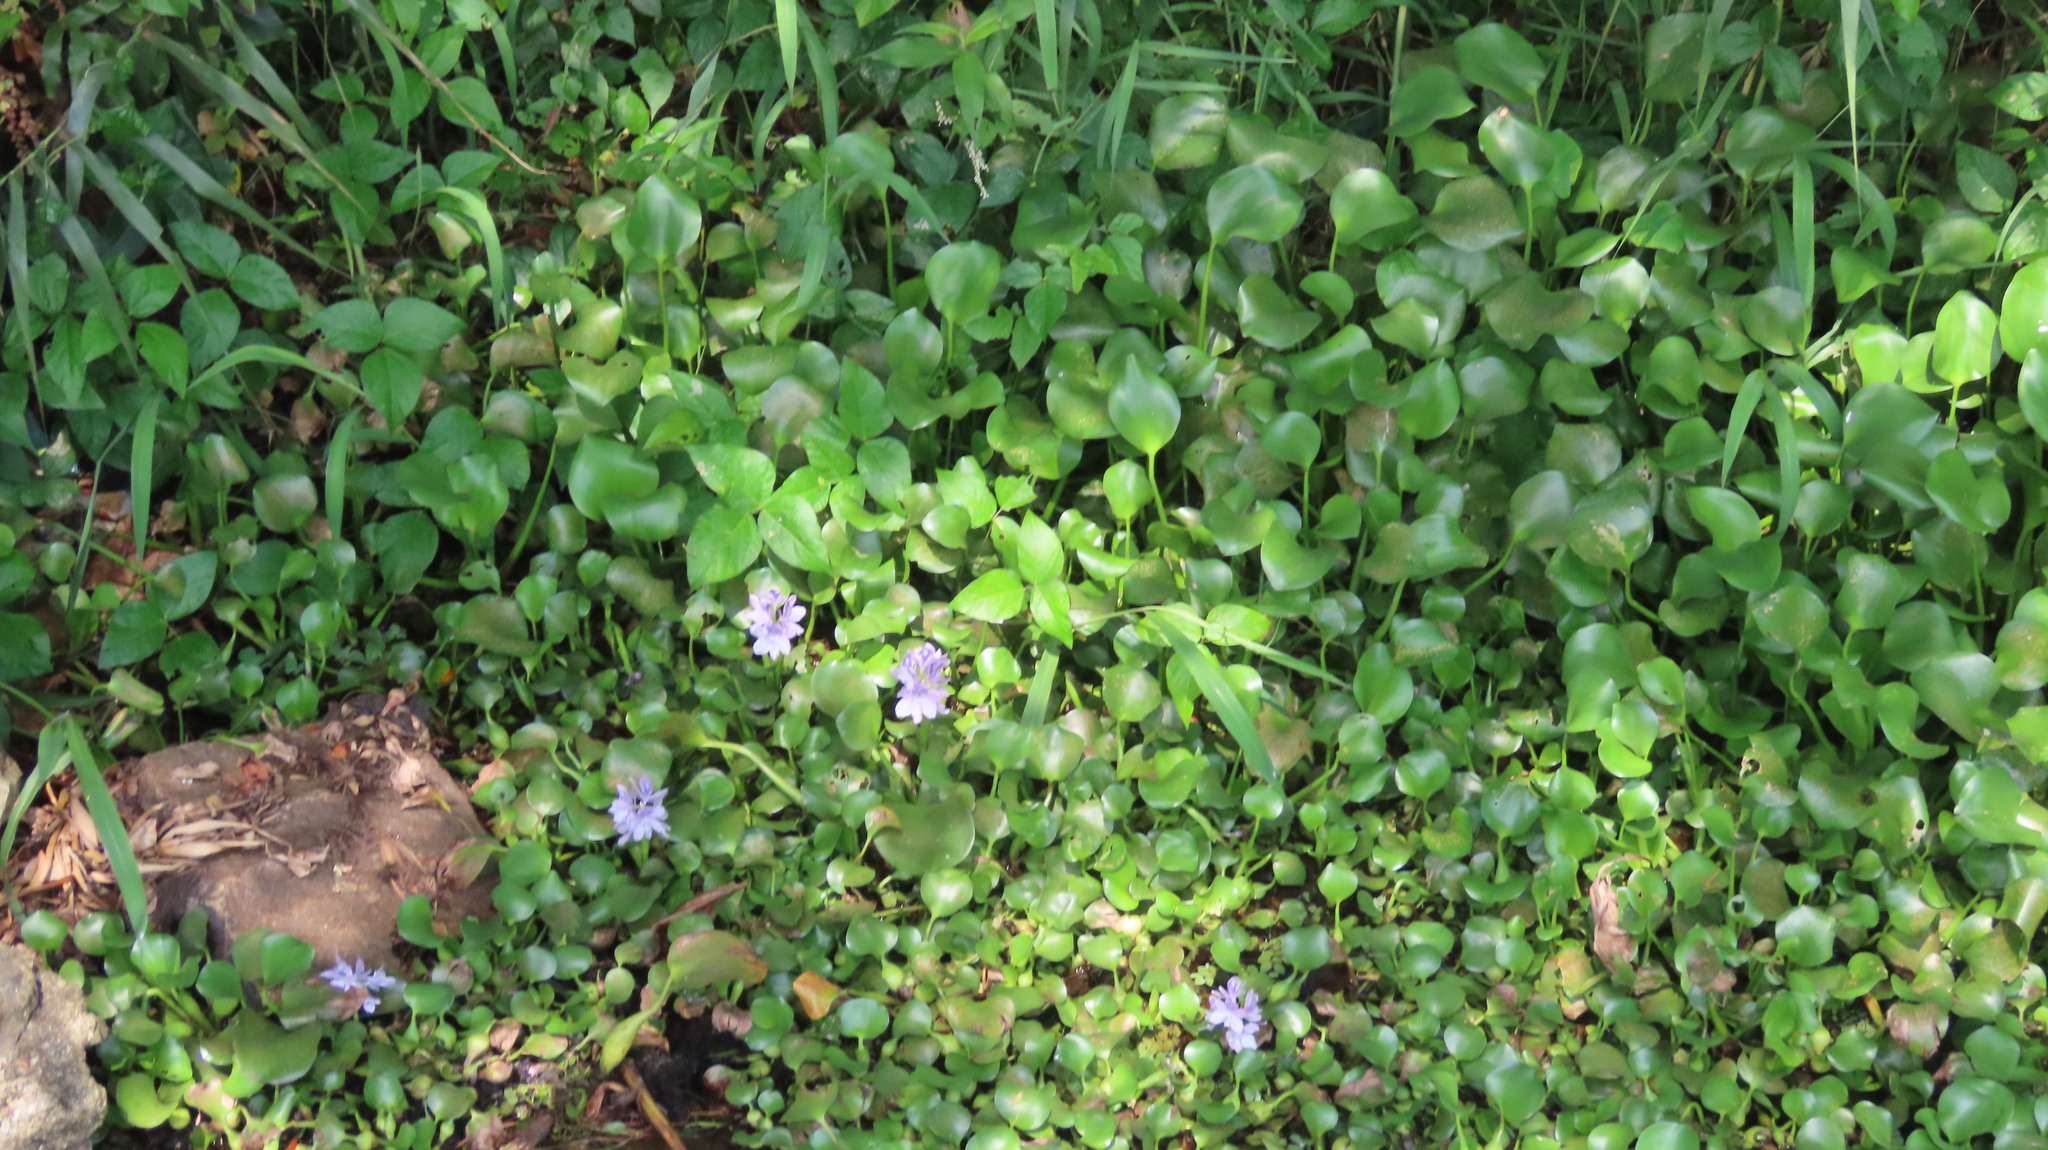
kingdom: Plantae
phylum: Tracheophyta
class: Liliopsida
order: Commelinales
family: Pontederiaceae
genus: Pontederia
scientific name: Pontederia crassipes
